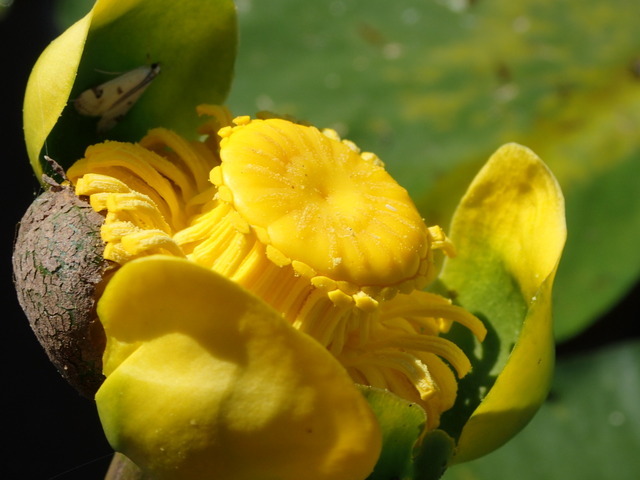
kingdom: Plantae
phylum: Tracheophyta
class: Magnoliopsida
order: Nymphaeales
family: Nymphaeaceae
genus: Nuphar
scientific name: Nuphar advena
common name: Spatter-dock
